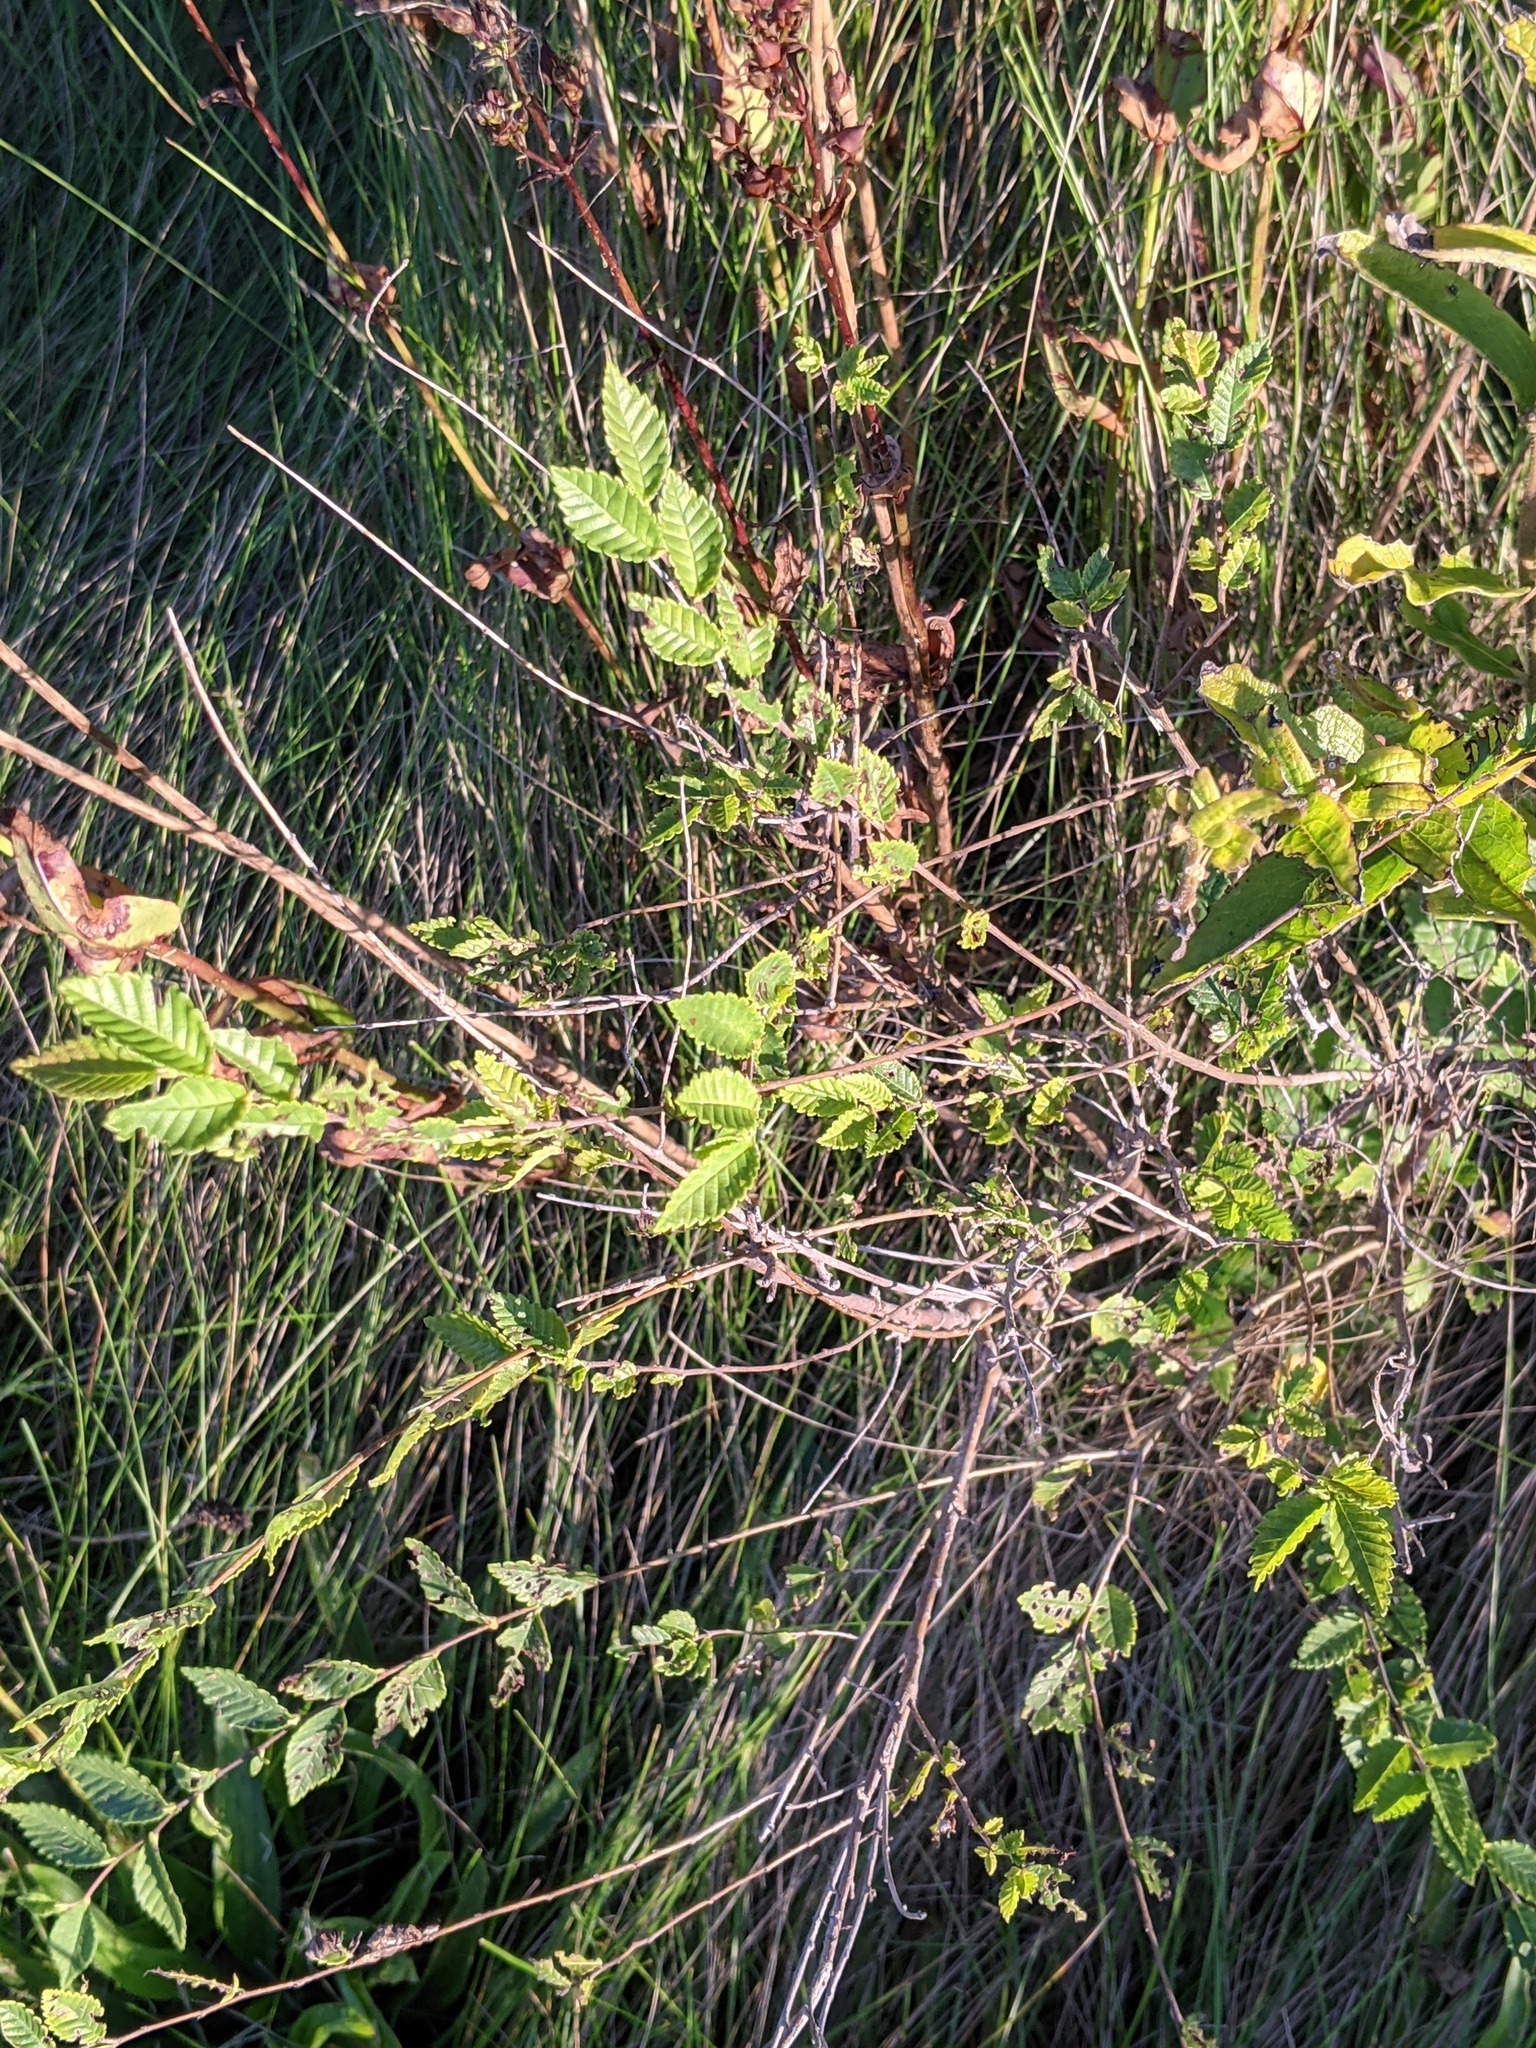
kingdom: Plantae
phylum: Tracheophyta
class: Magnoliopsida
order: Rosales
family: Ulmaceae
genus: Ulmus
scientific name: Ulmus pumila
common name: Siberian elm
